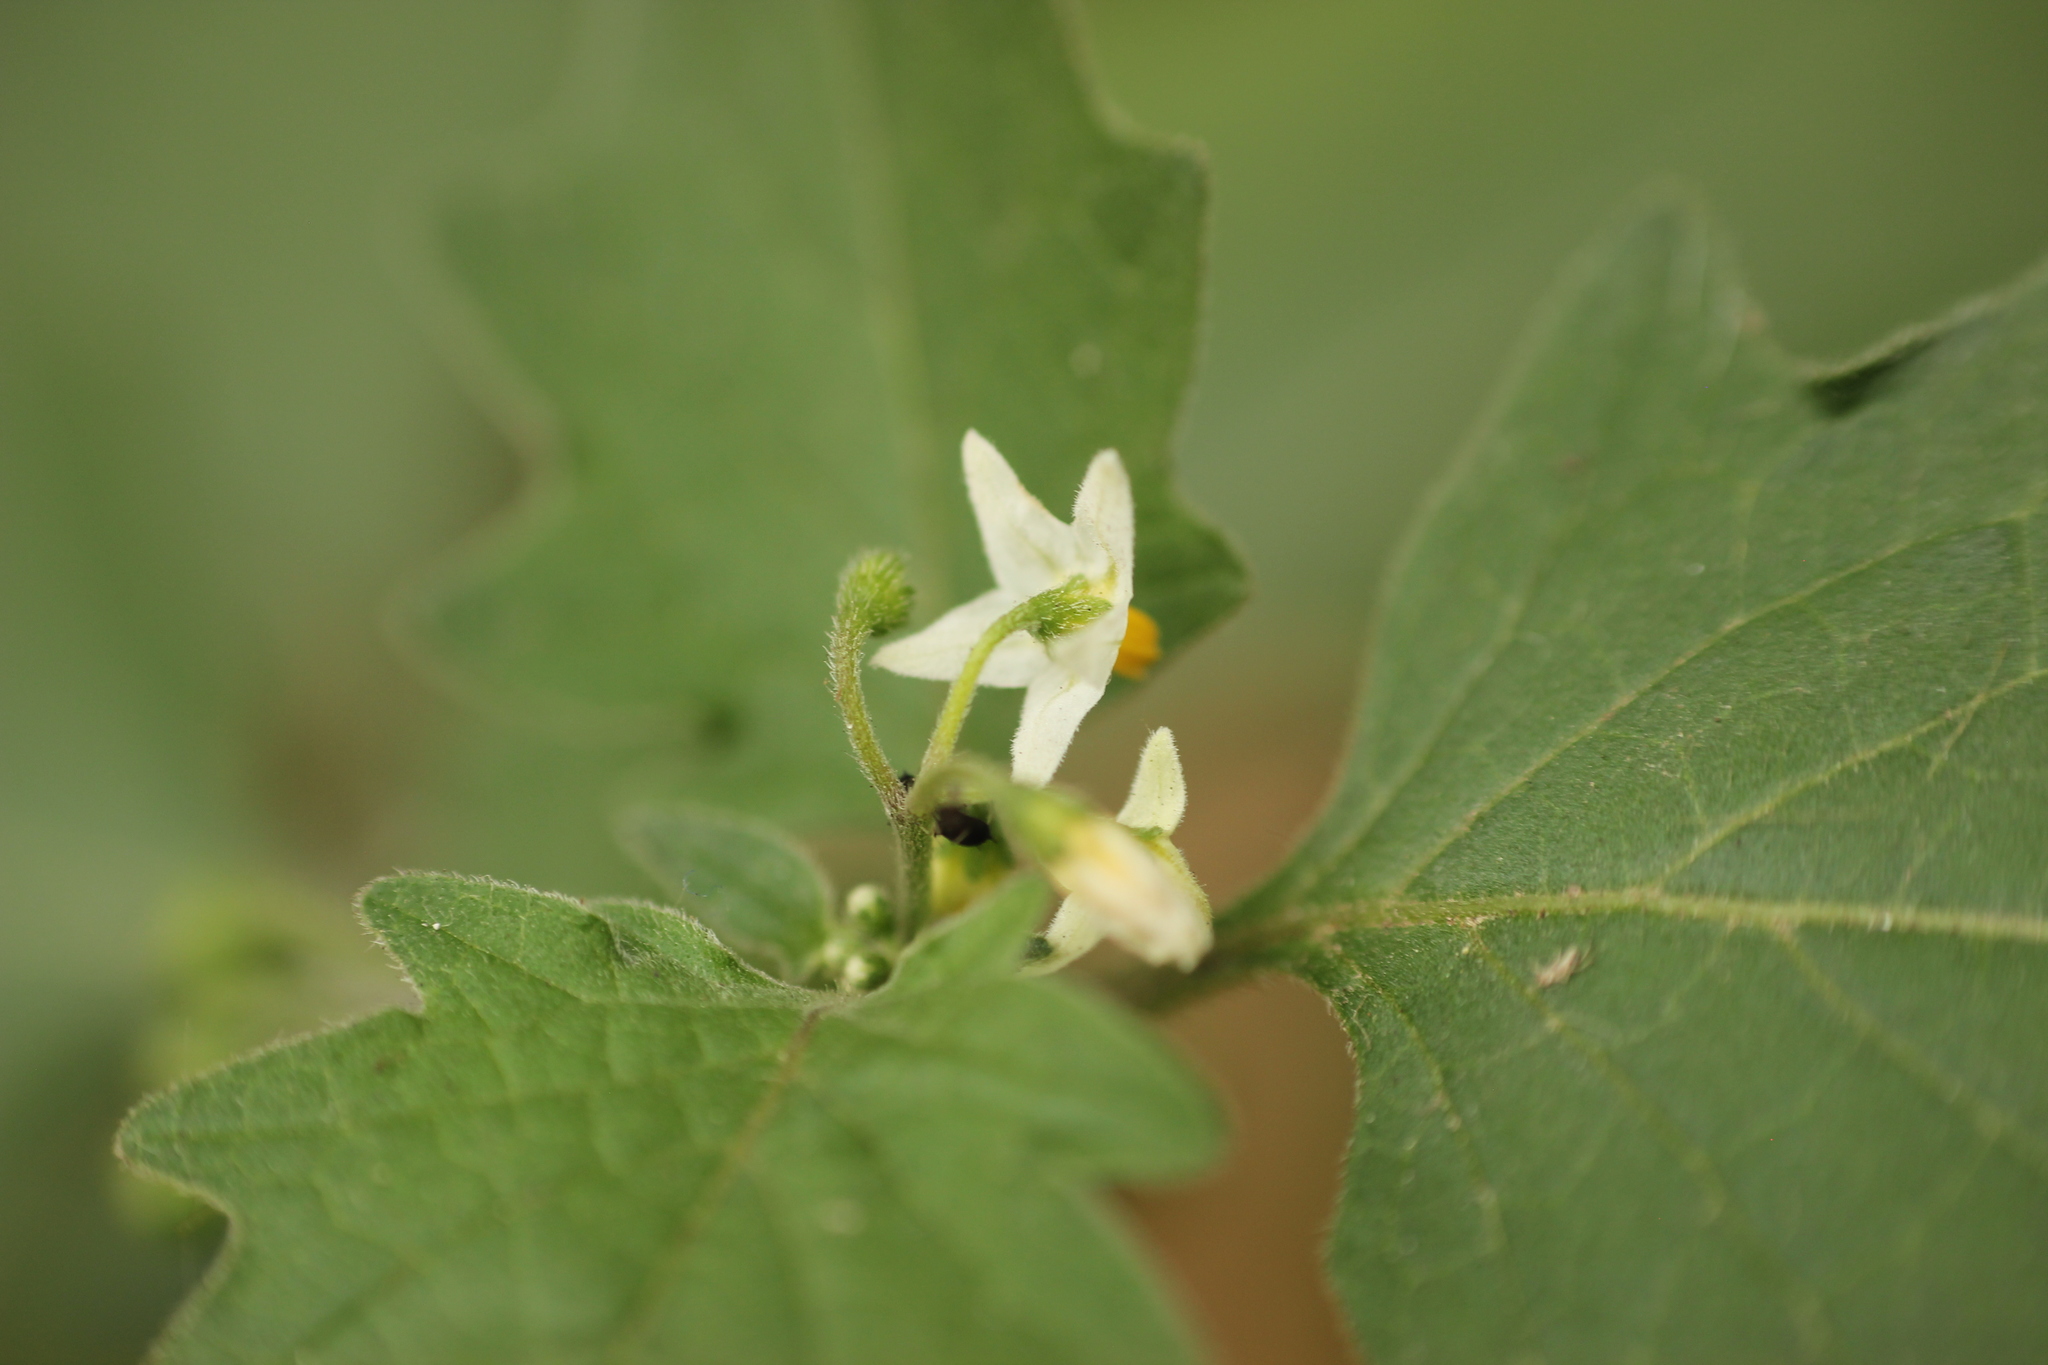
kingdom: Plantae
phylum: Tracheophyta
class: Magnoliopsida
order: Solanales
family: Solanaceae
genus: Solanum
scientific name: Solanum nigrum
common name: Black nightshade
